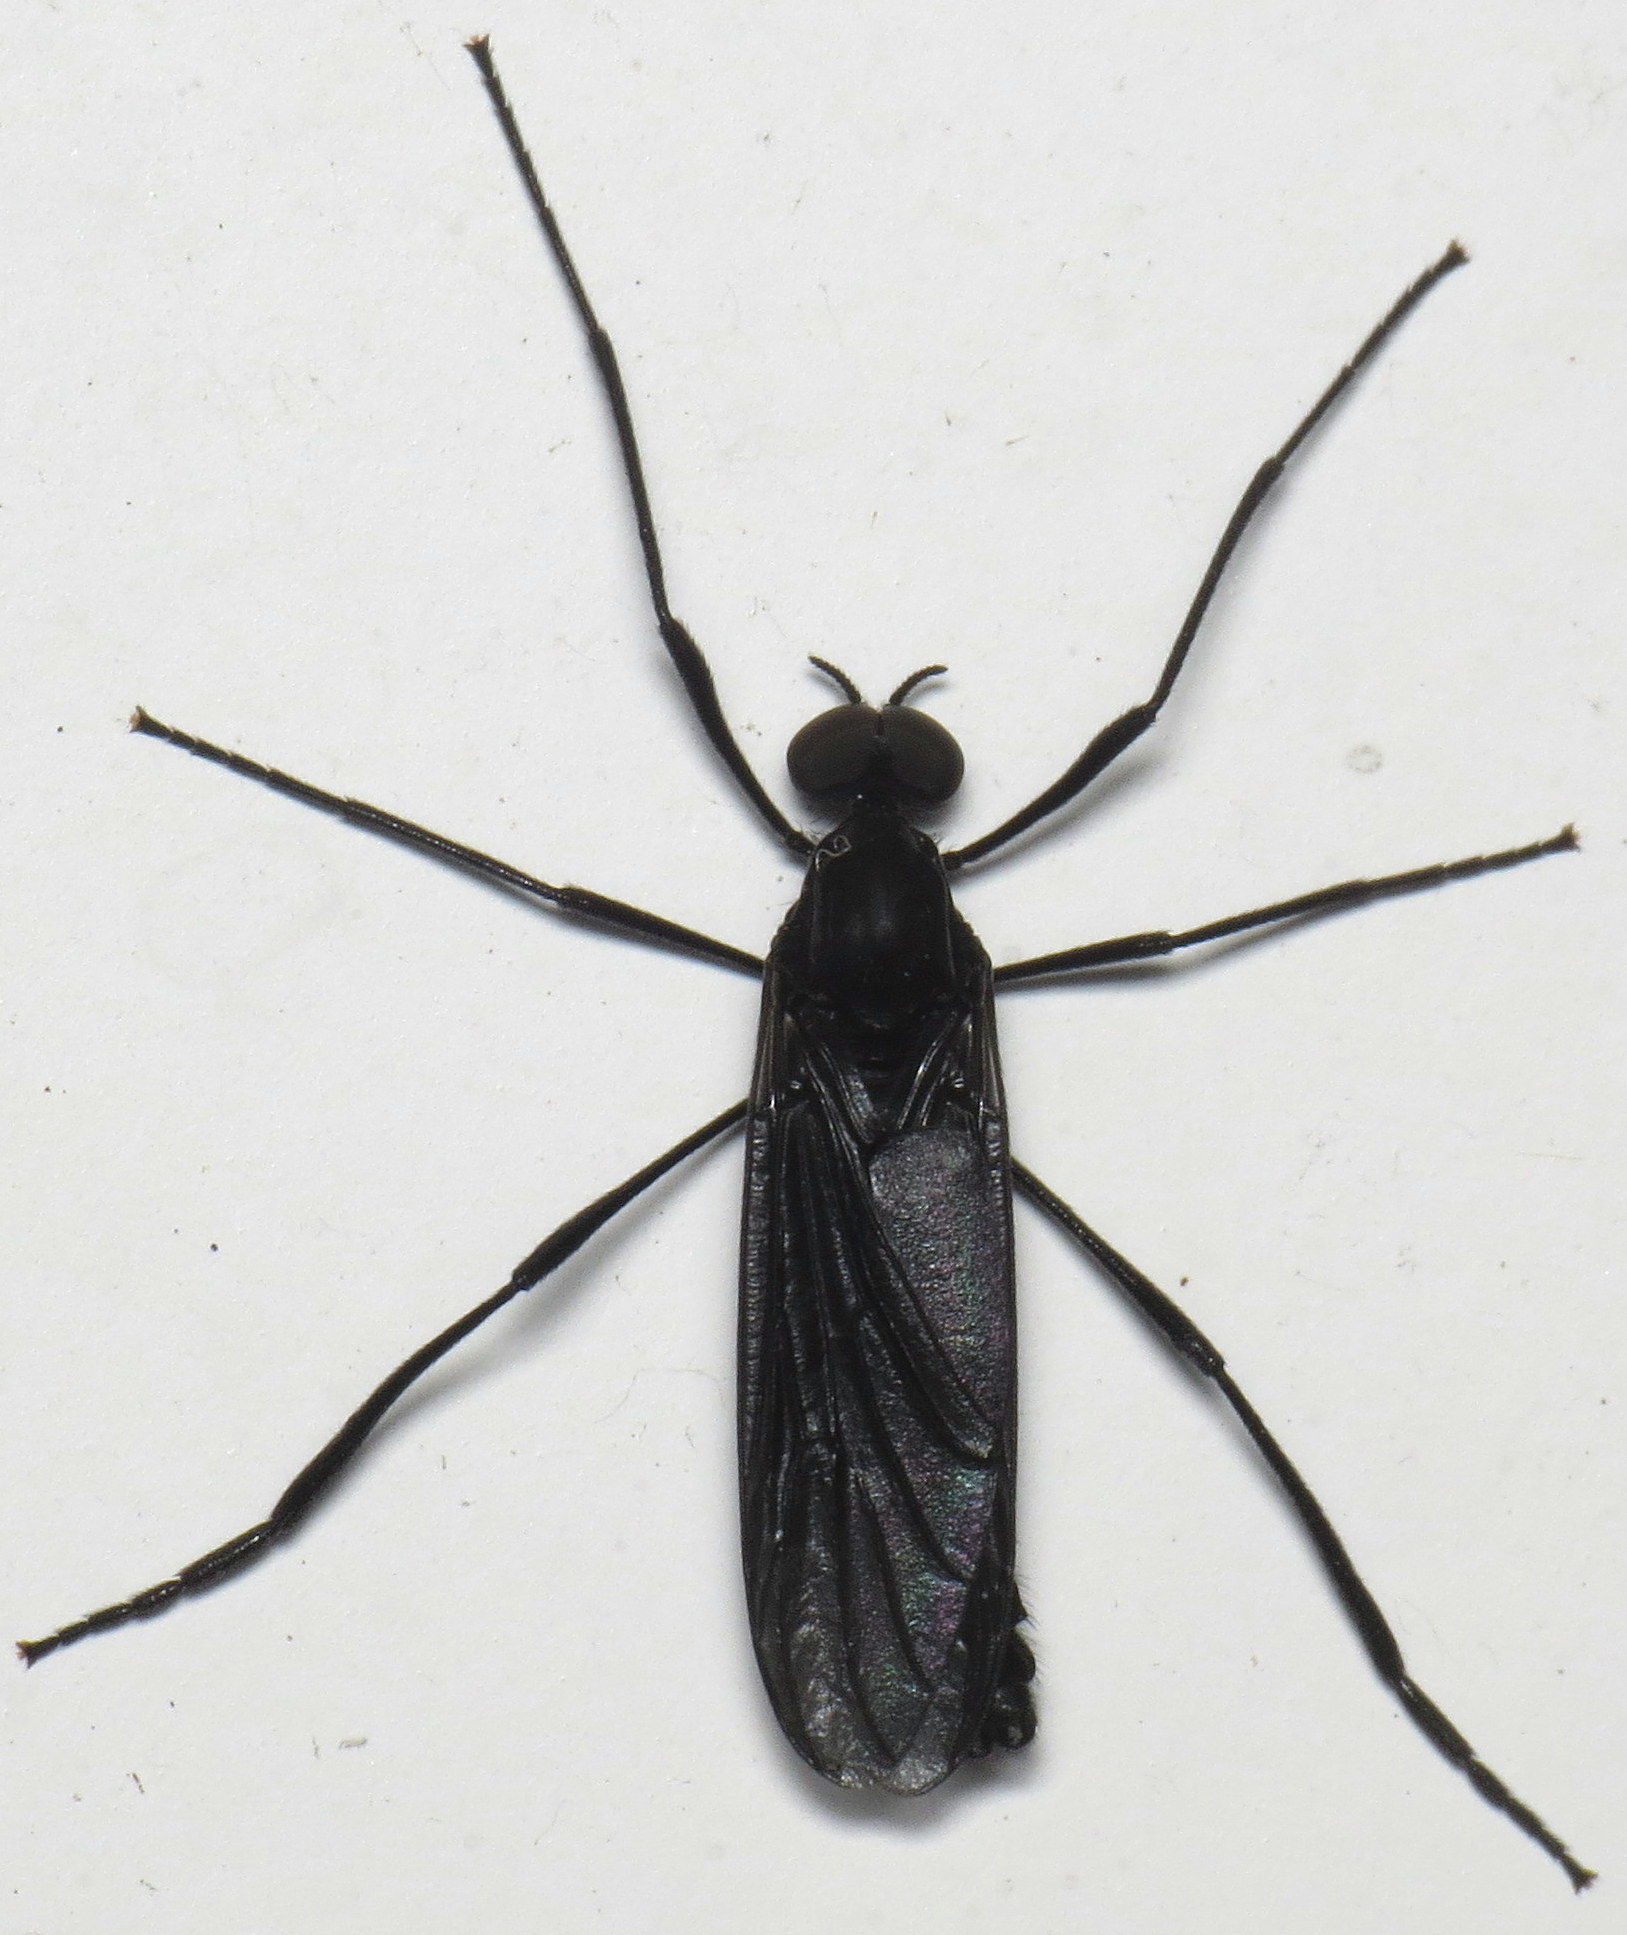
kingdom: Animalia
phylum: Arthropoda
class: Insecta
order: Diptera
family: Bibionidae
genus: Penthetria
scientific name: Penthetria heteroptera
